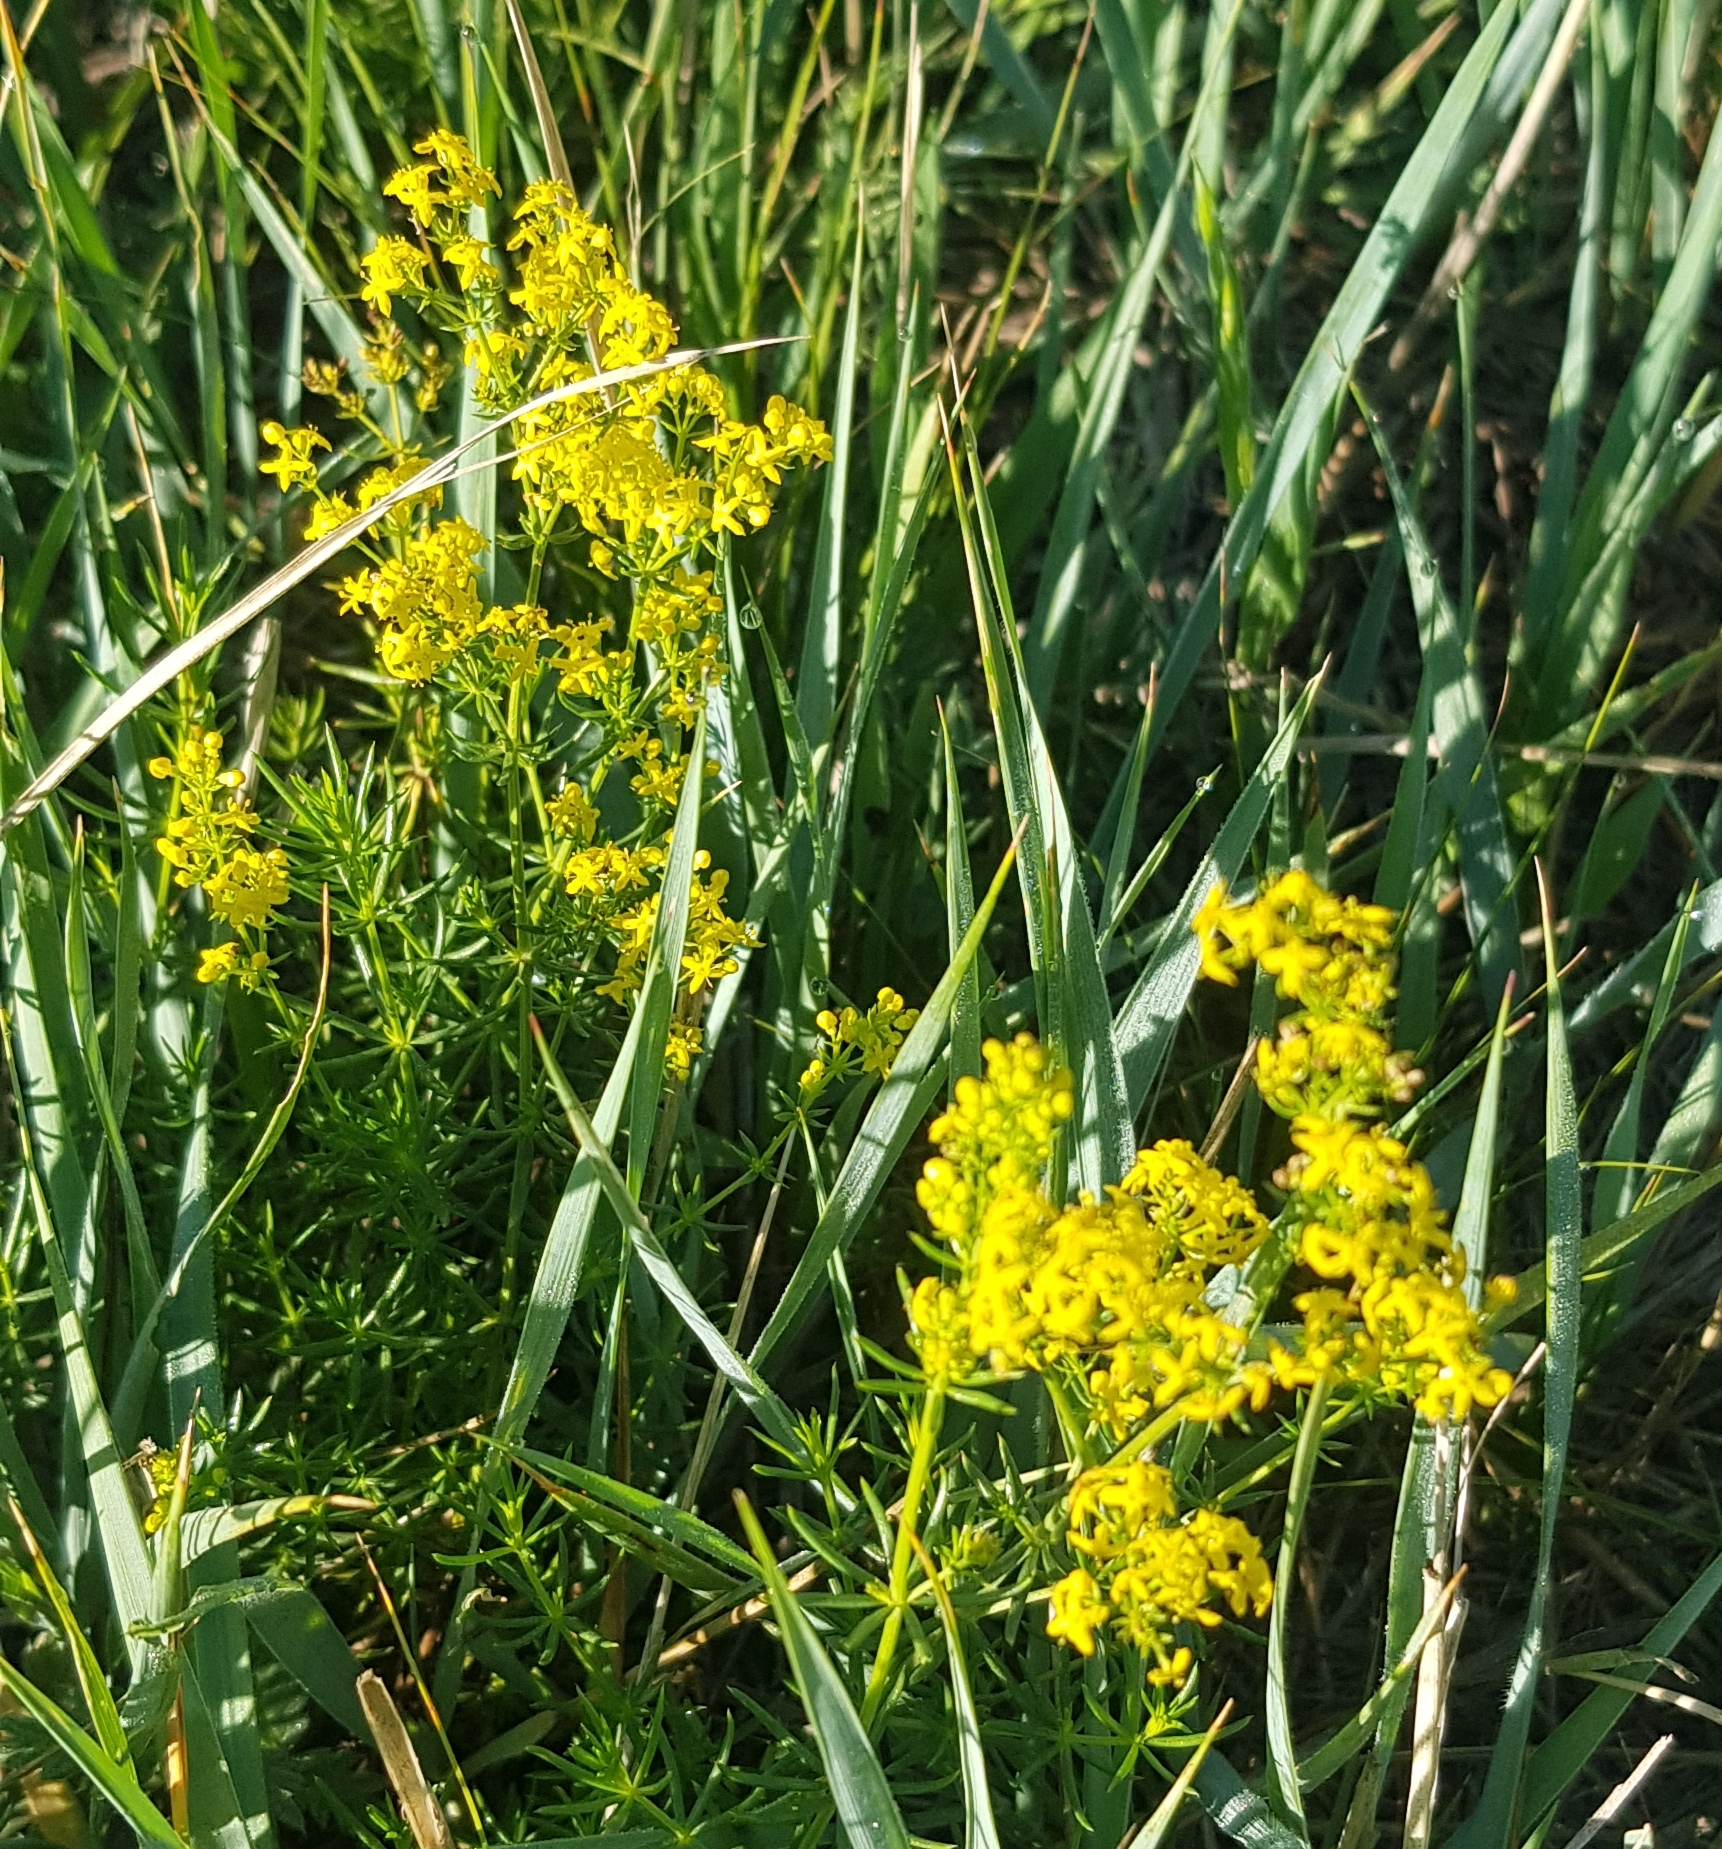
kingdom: Plantae
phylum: Tracheophyta
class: Magnoliopsida
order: Gentianales
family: Rubiaceae
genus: Galium
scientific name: Galium verum
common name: Lady's bedstraw
